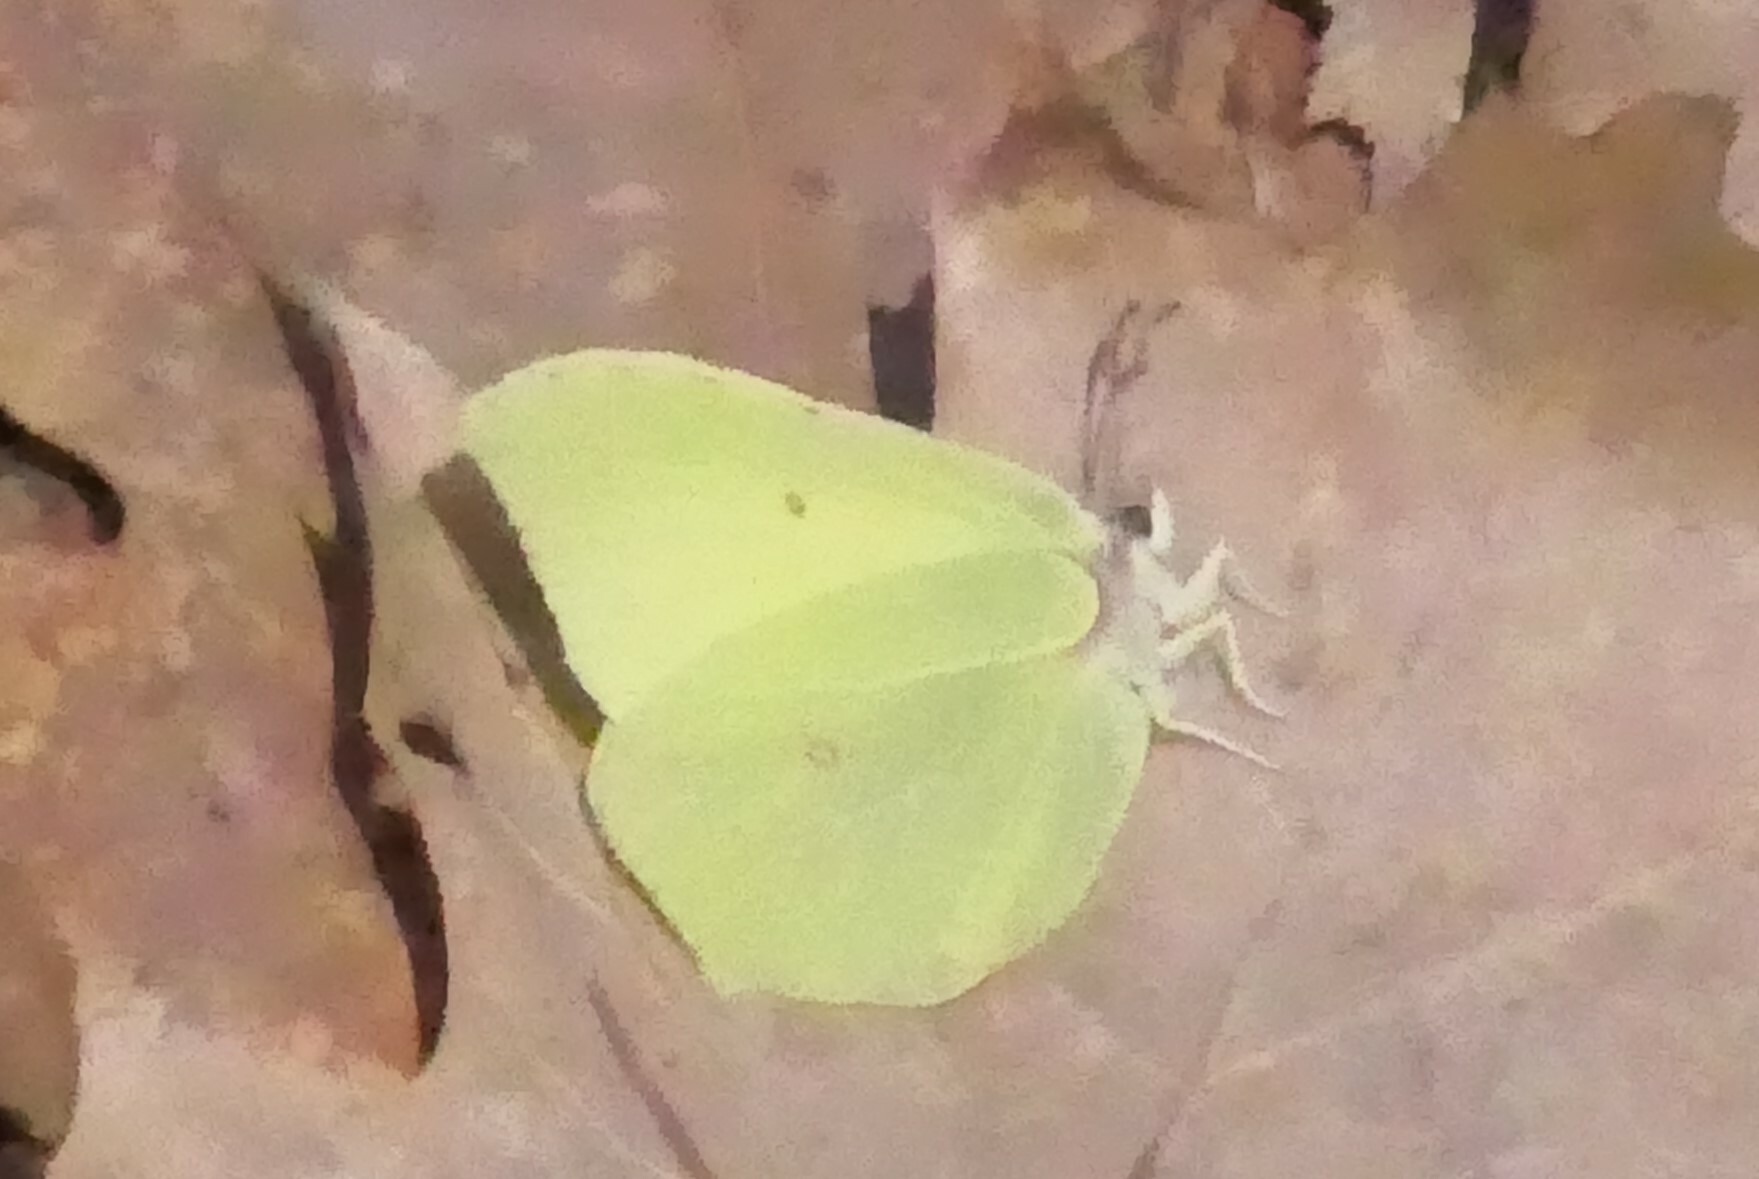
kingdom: Animalia
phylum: Arthropoda
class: Insecta
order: Lepidoptera
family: Pieridae
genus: Gonepteryx
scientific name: Gonepteryx rhamni
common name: Brimstone
